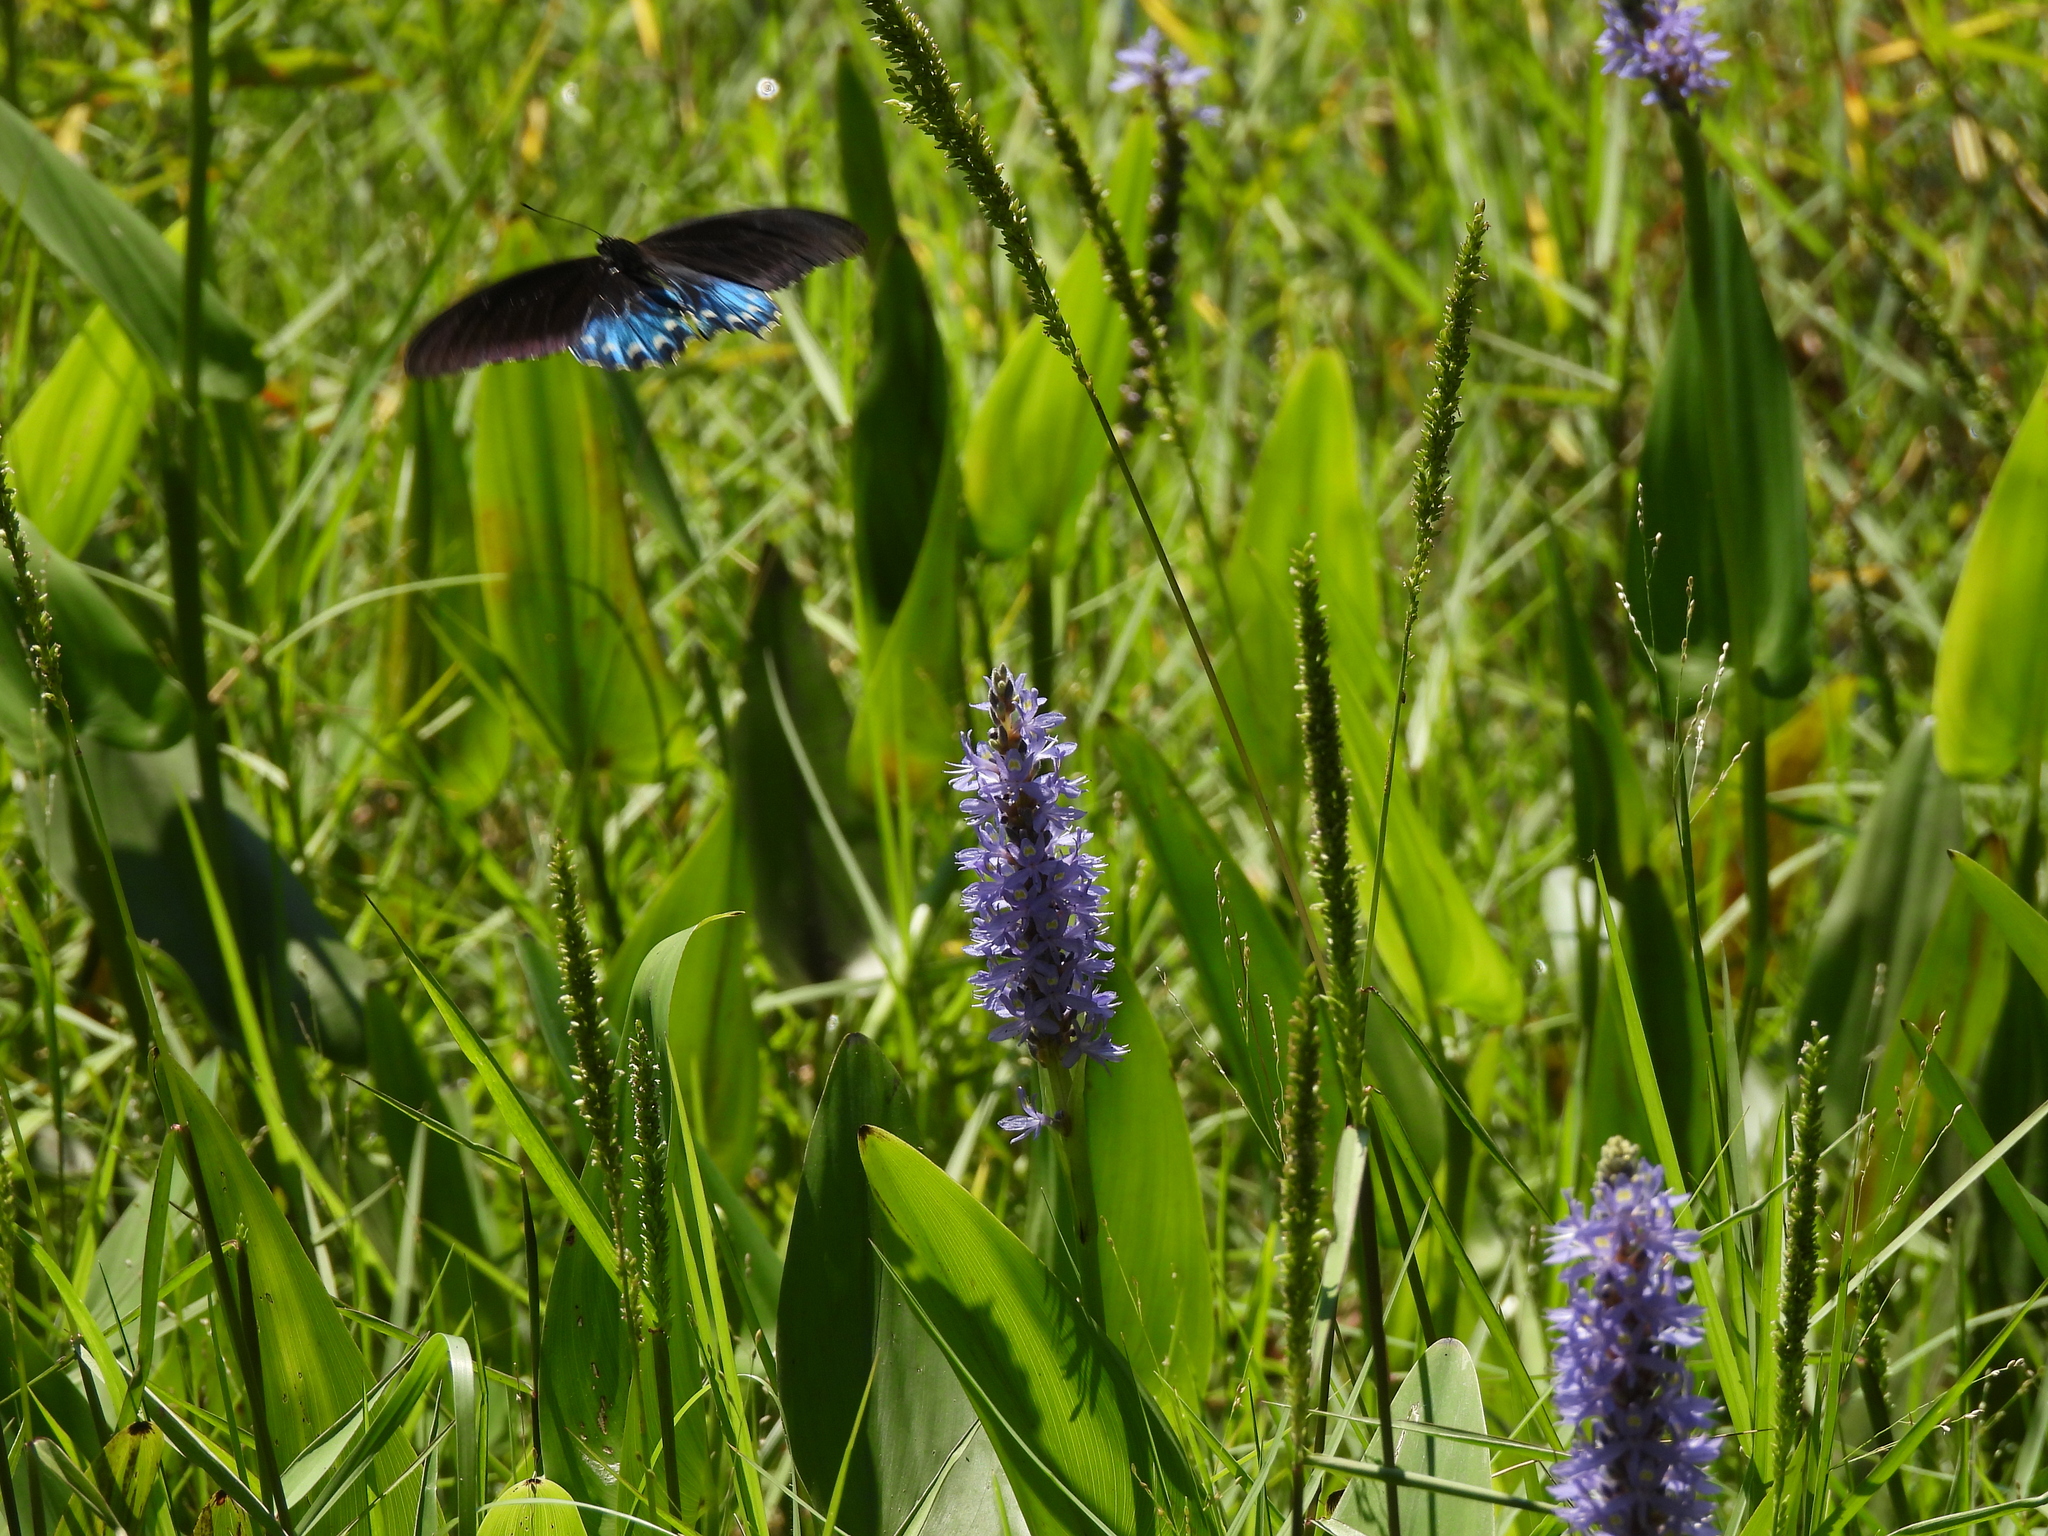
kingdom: Animalia
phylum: Arthropoda
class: Insecta
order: Lepidoptera
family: Papilionidae
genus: Battus
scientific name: Battus philenor
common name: Pipevine swallowtail
